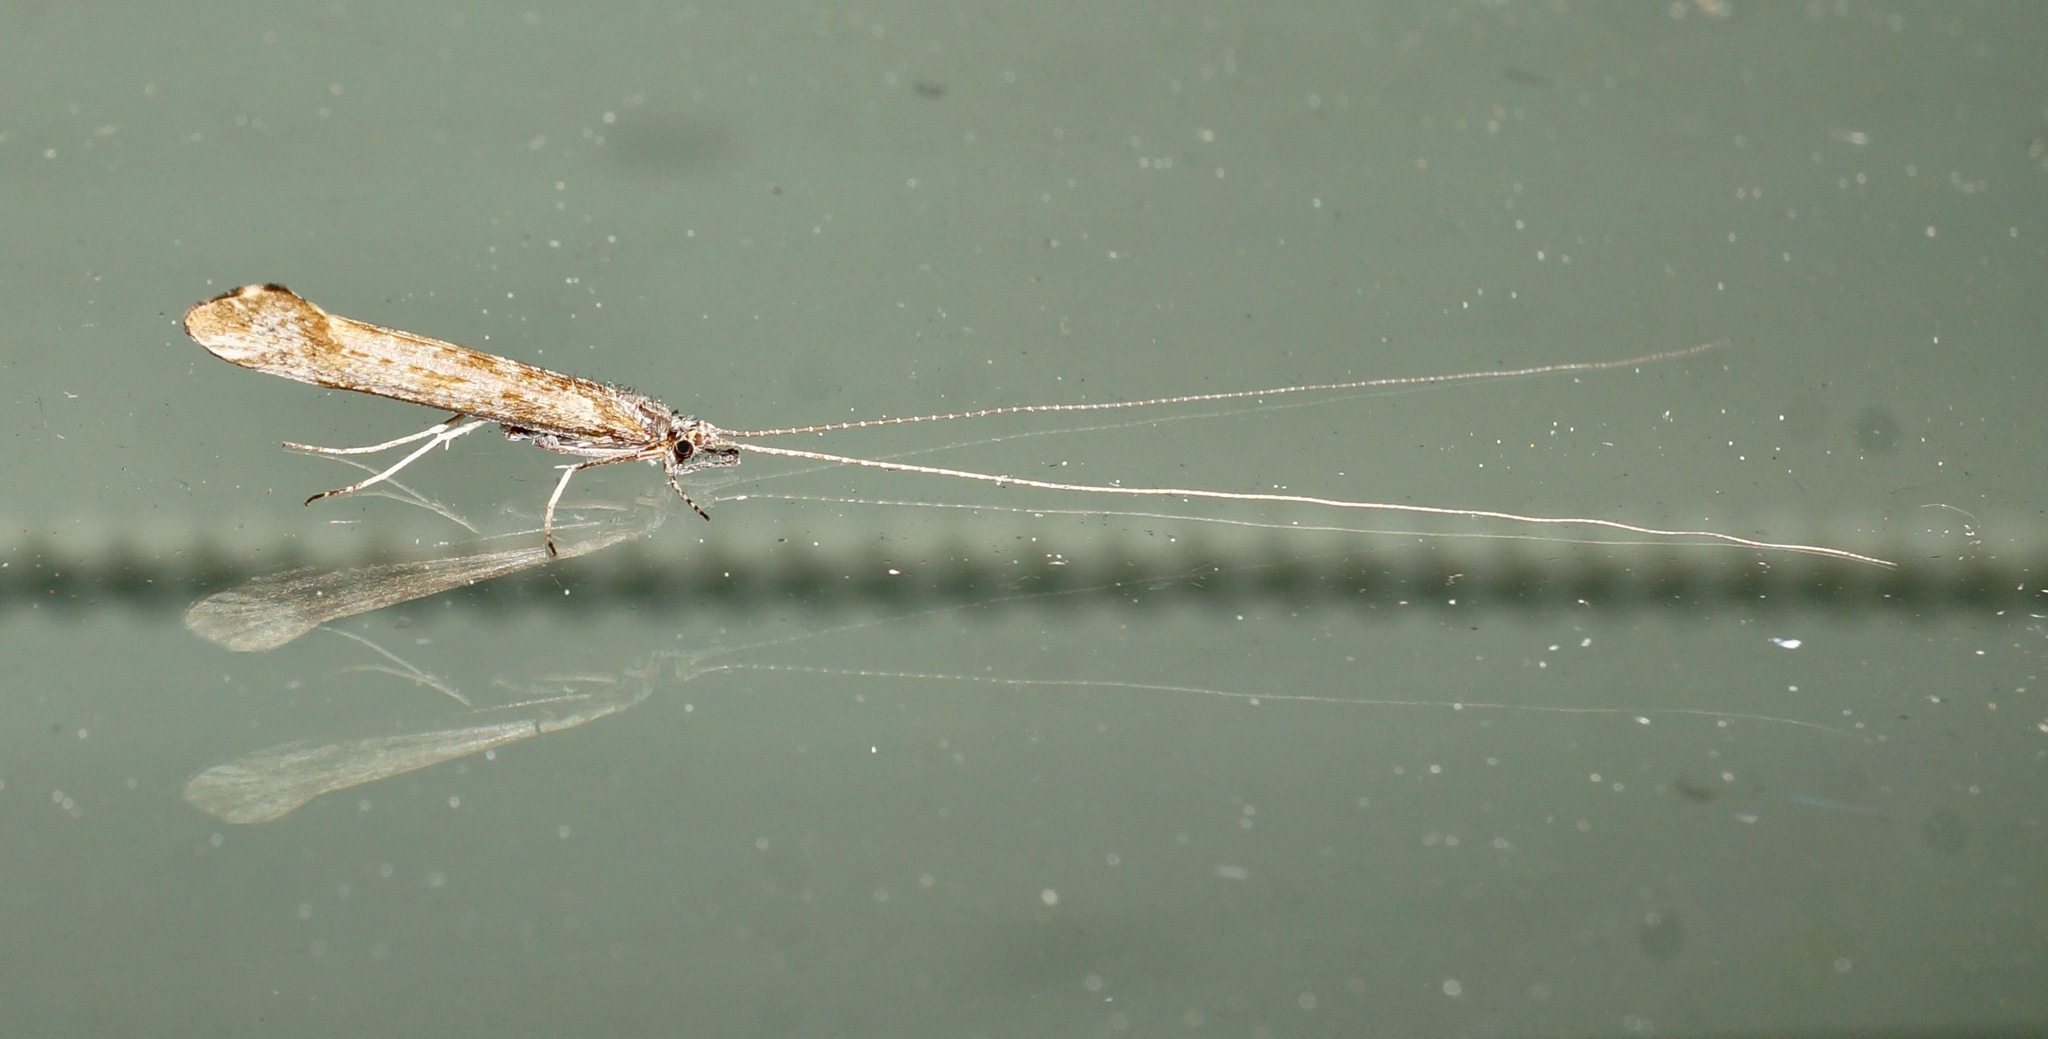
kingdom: Animalia
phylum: Arthropoda
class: Insecta
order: Trichoptera
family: Leptoceridae
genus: Hudsonema
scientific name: Hudsonema amabile
